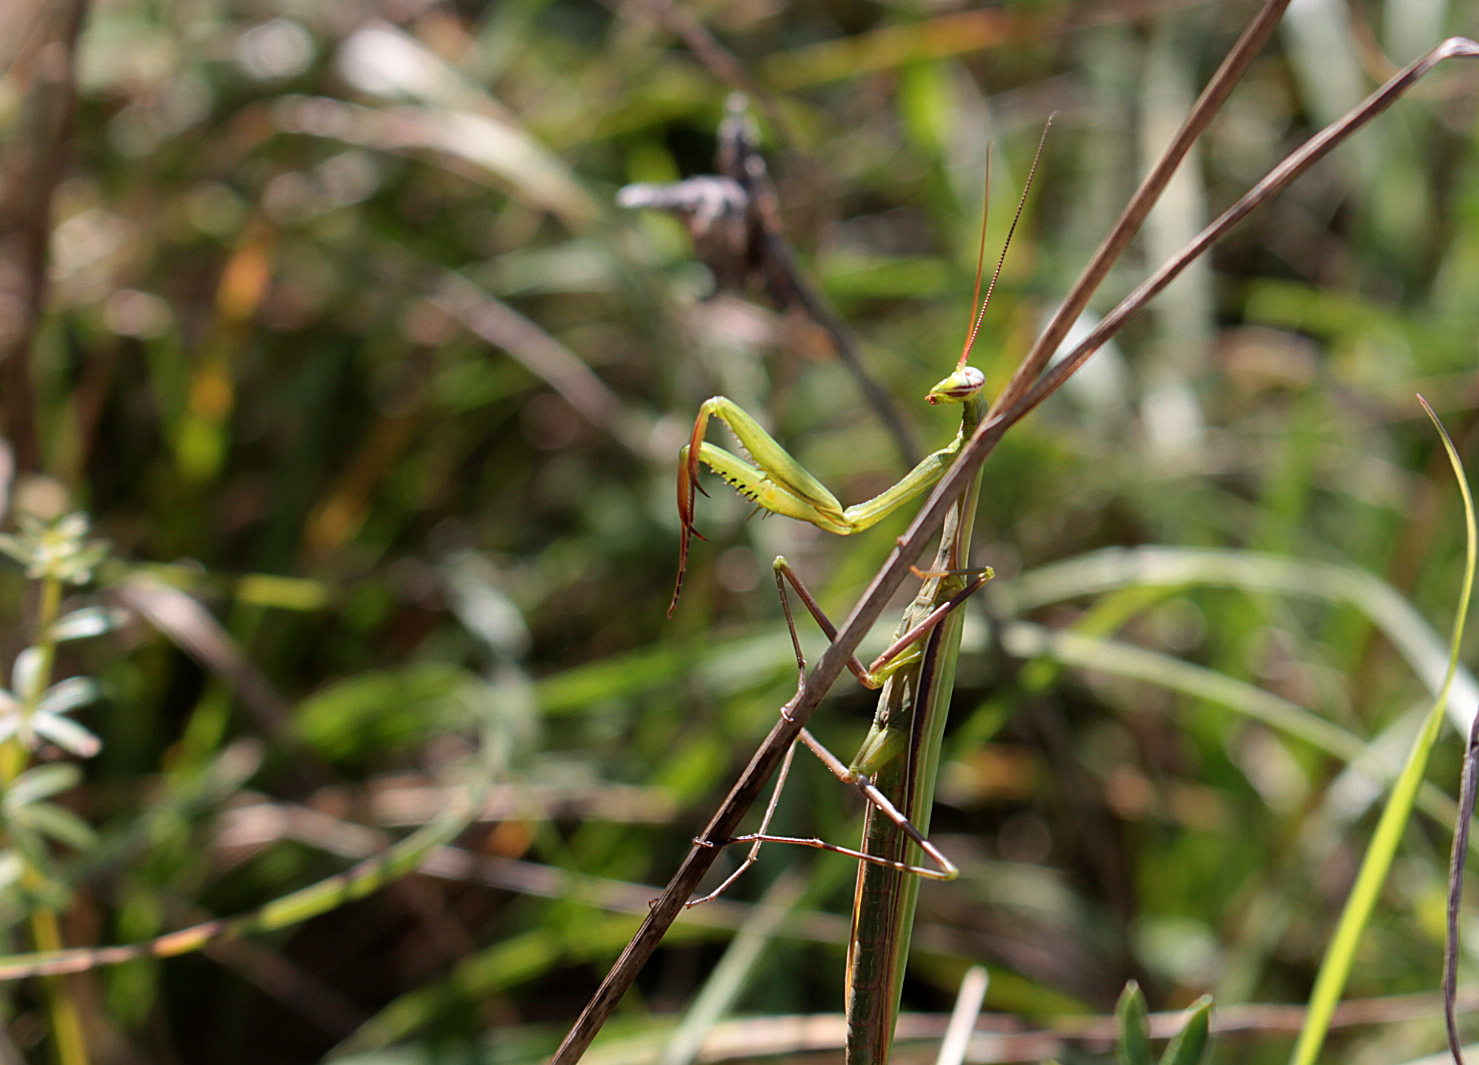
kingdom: Animalia
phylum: Arthropoda
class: Insecta
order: Mantodea
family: Mantidae
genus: Mantis
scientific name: Mantis religiosa
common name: Praying mantis
